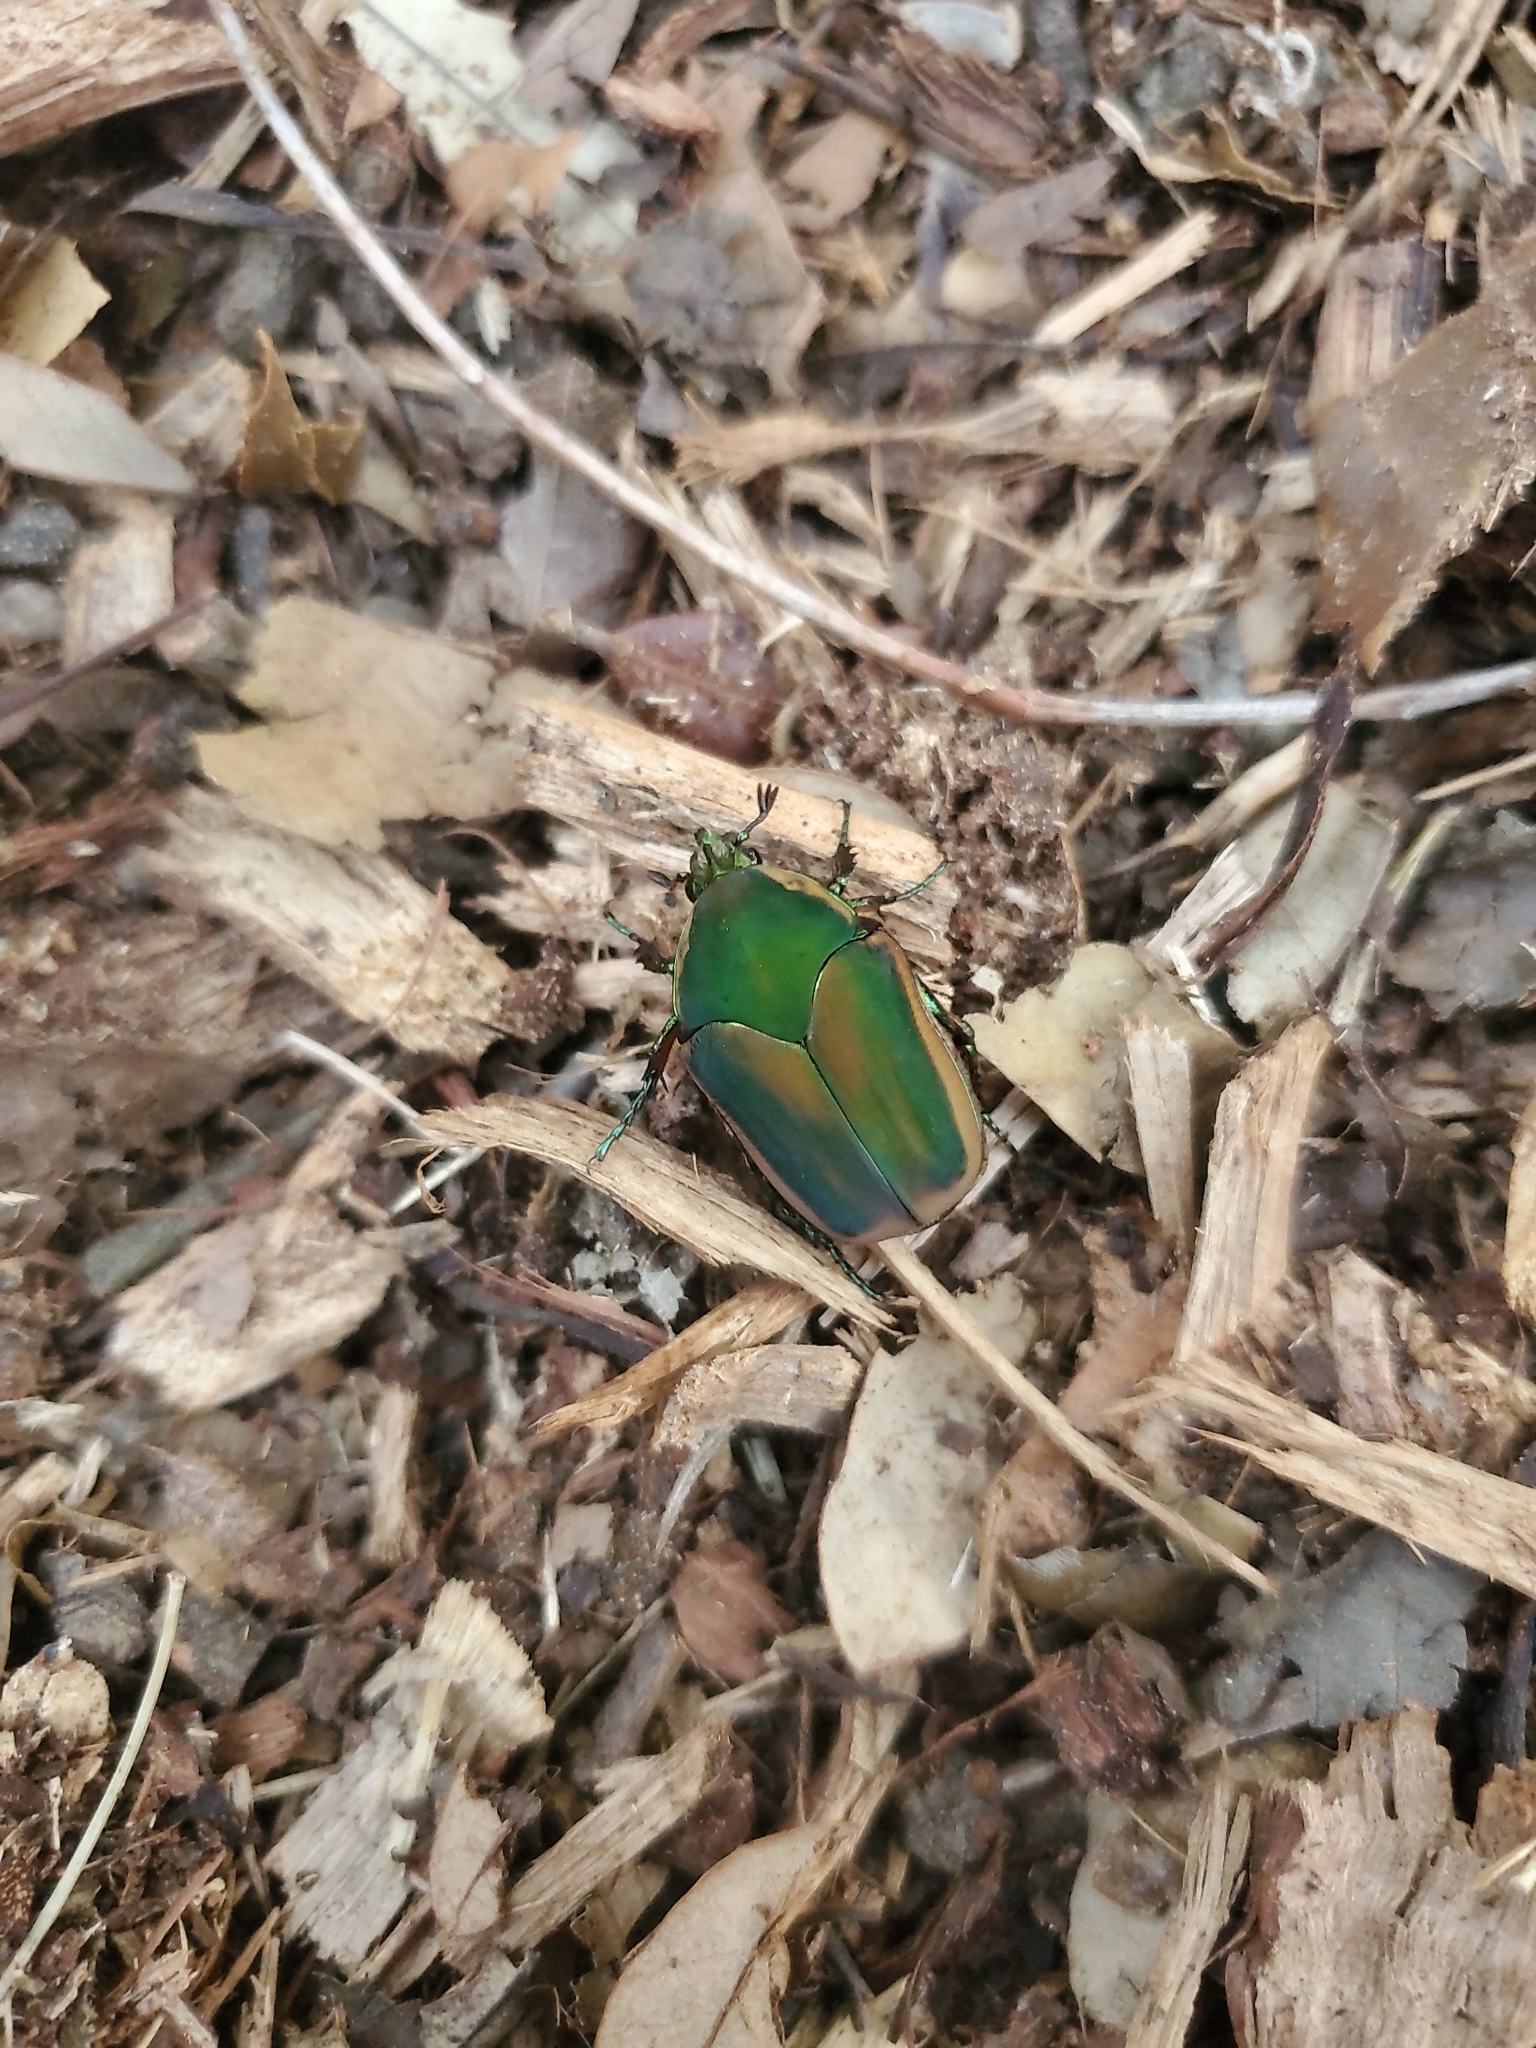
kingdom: Animalia
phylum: Arthropoda
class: Insecta
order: Coleoptera
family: Scarabaeidae
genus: Cotinis
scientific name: Cotinis nitida
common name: Common green june beetle
